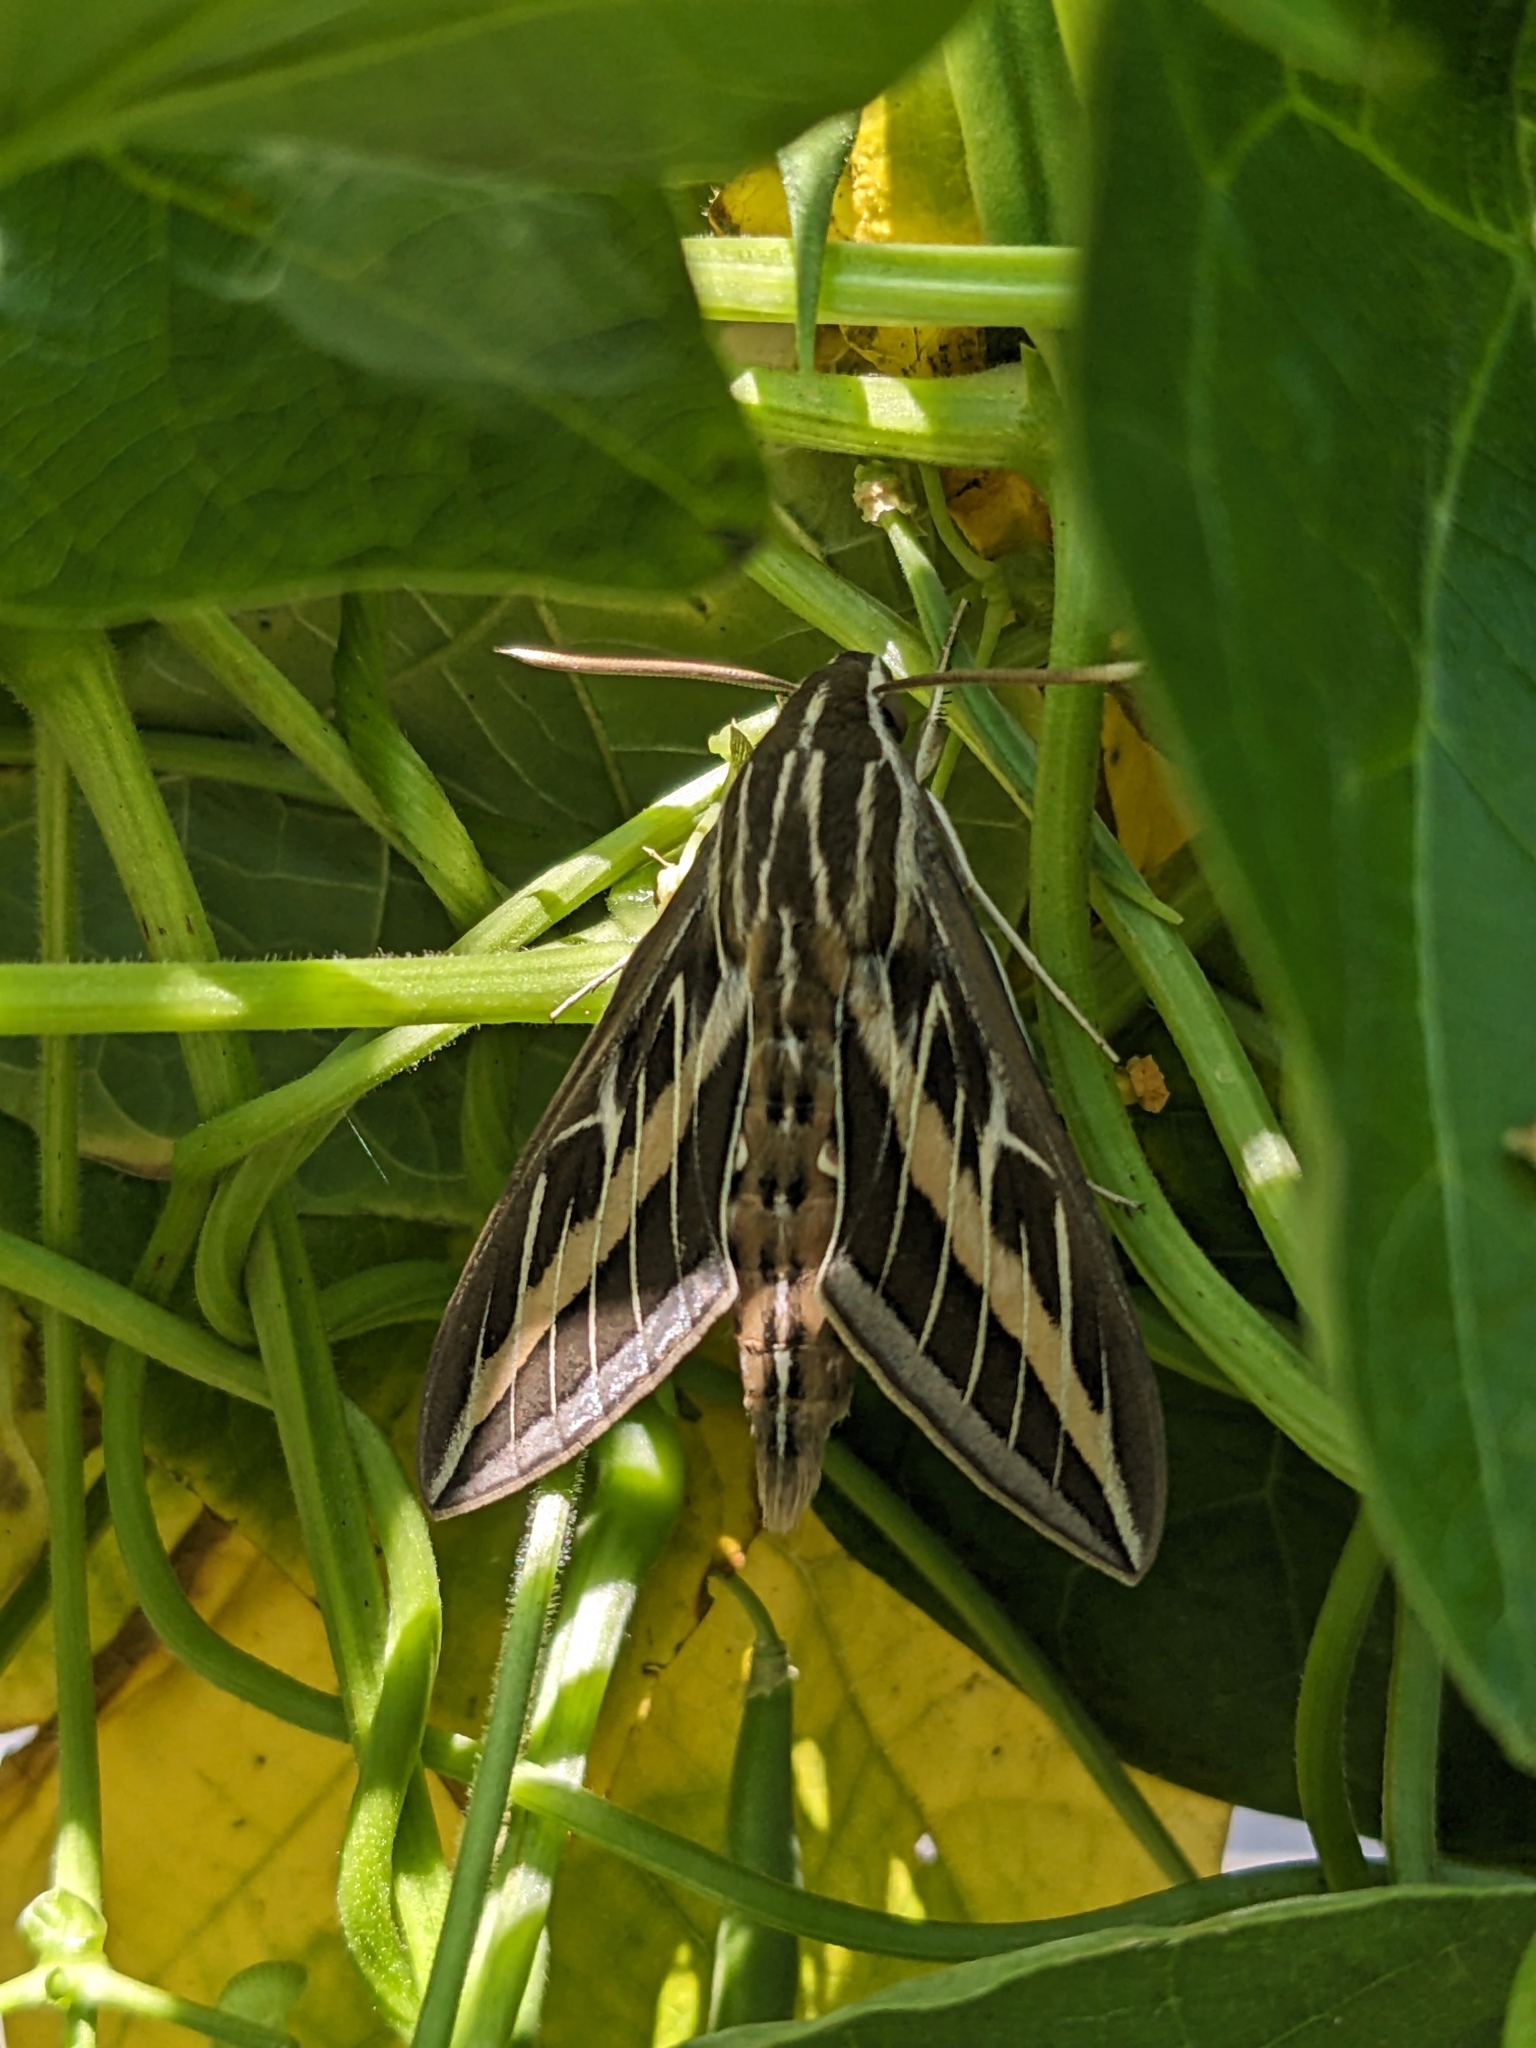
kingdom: Animalia
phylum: Arthropoda
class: Insecta
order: Lepidoptera
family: Sphingidae
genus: Hyles
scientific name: Hyles lineata
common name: White-lined sphinx
